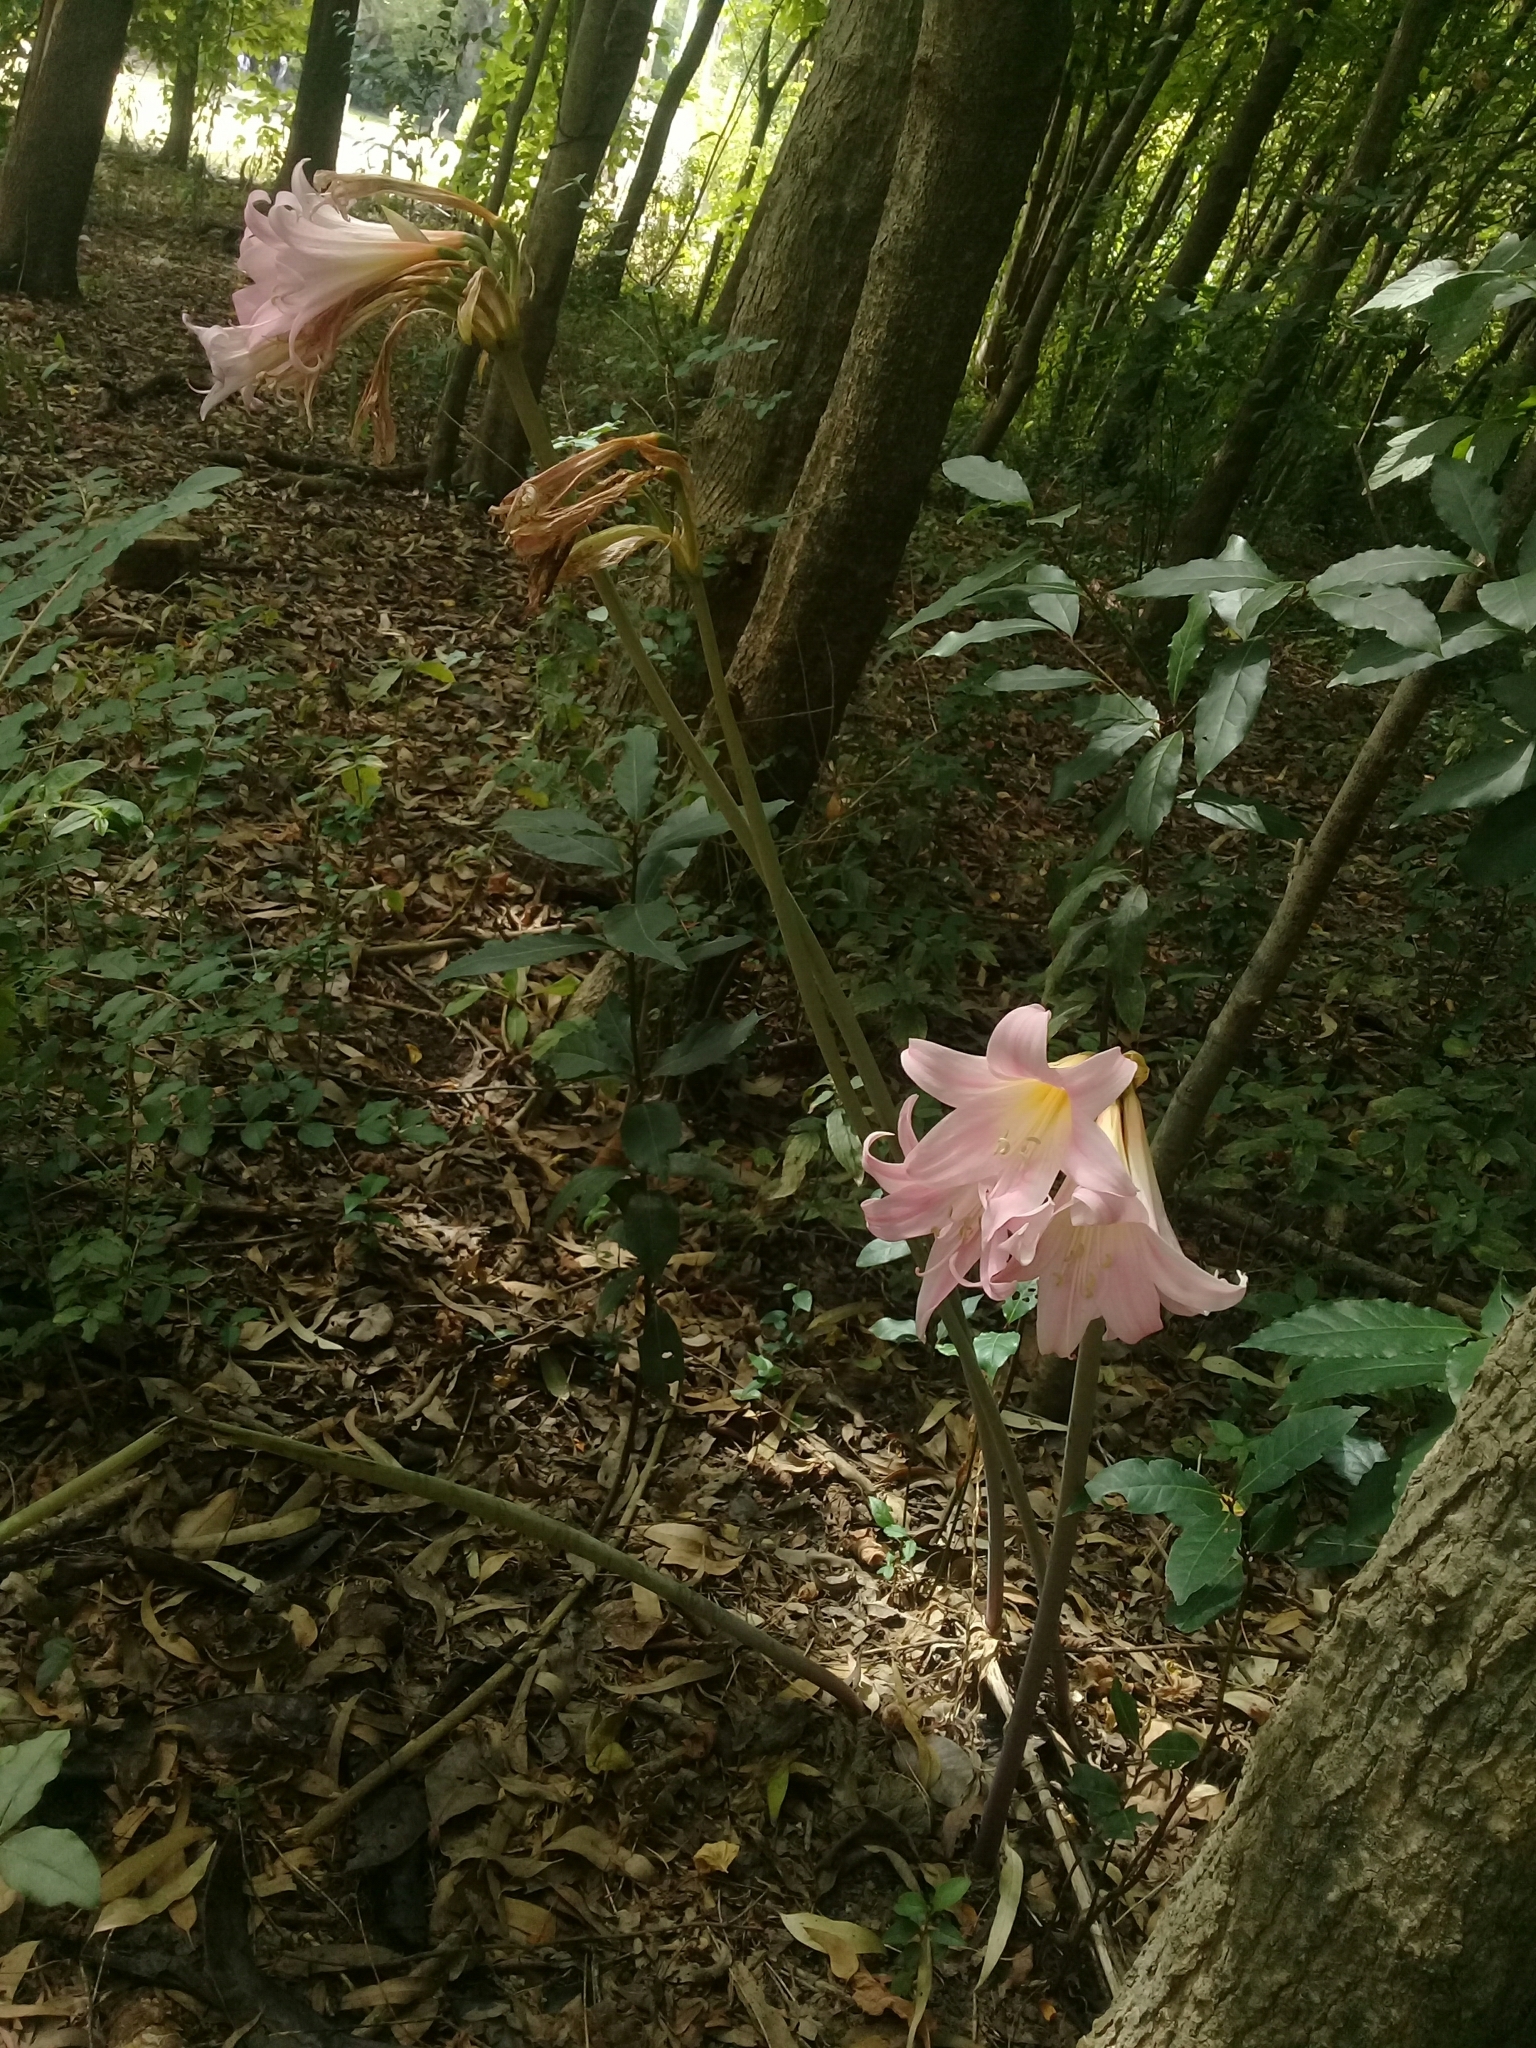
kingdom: Plantae
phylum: Tracheophyta
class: Liliopsida
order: Asparagales
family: Amaryllidaceae
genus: Amaryllis
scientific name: Amaryllis belladonna
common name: Jersey lily
